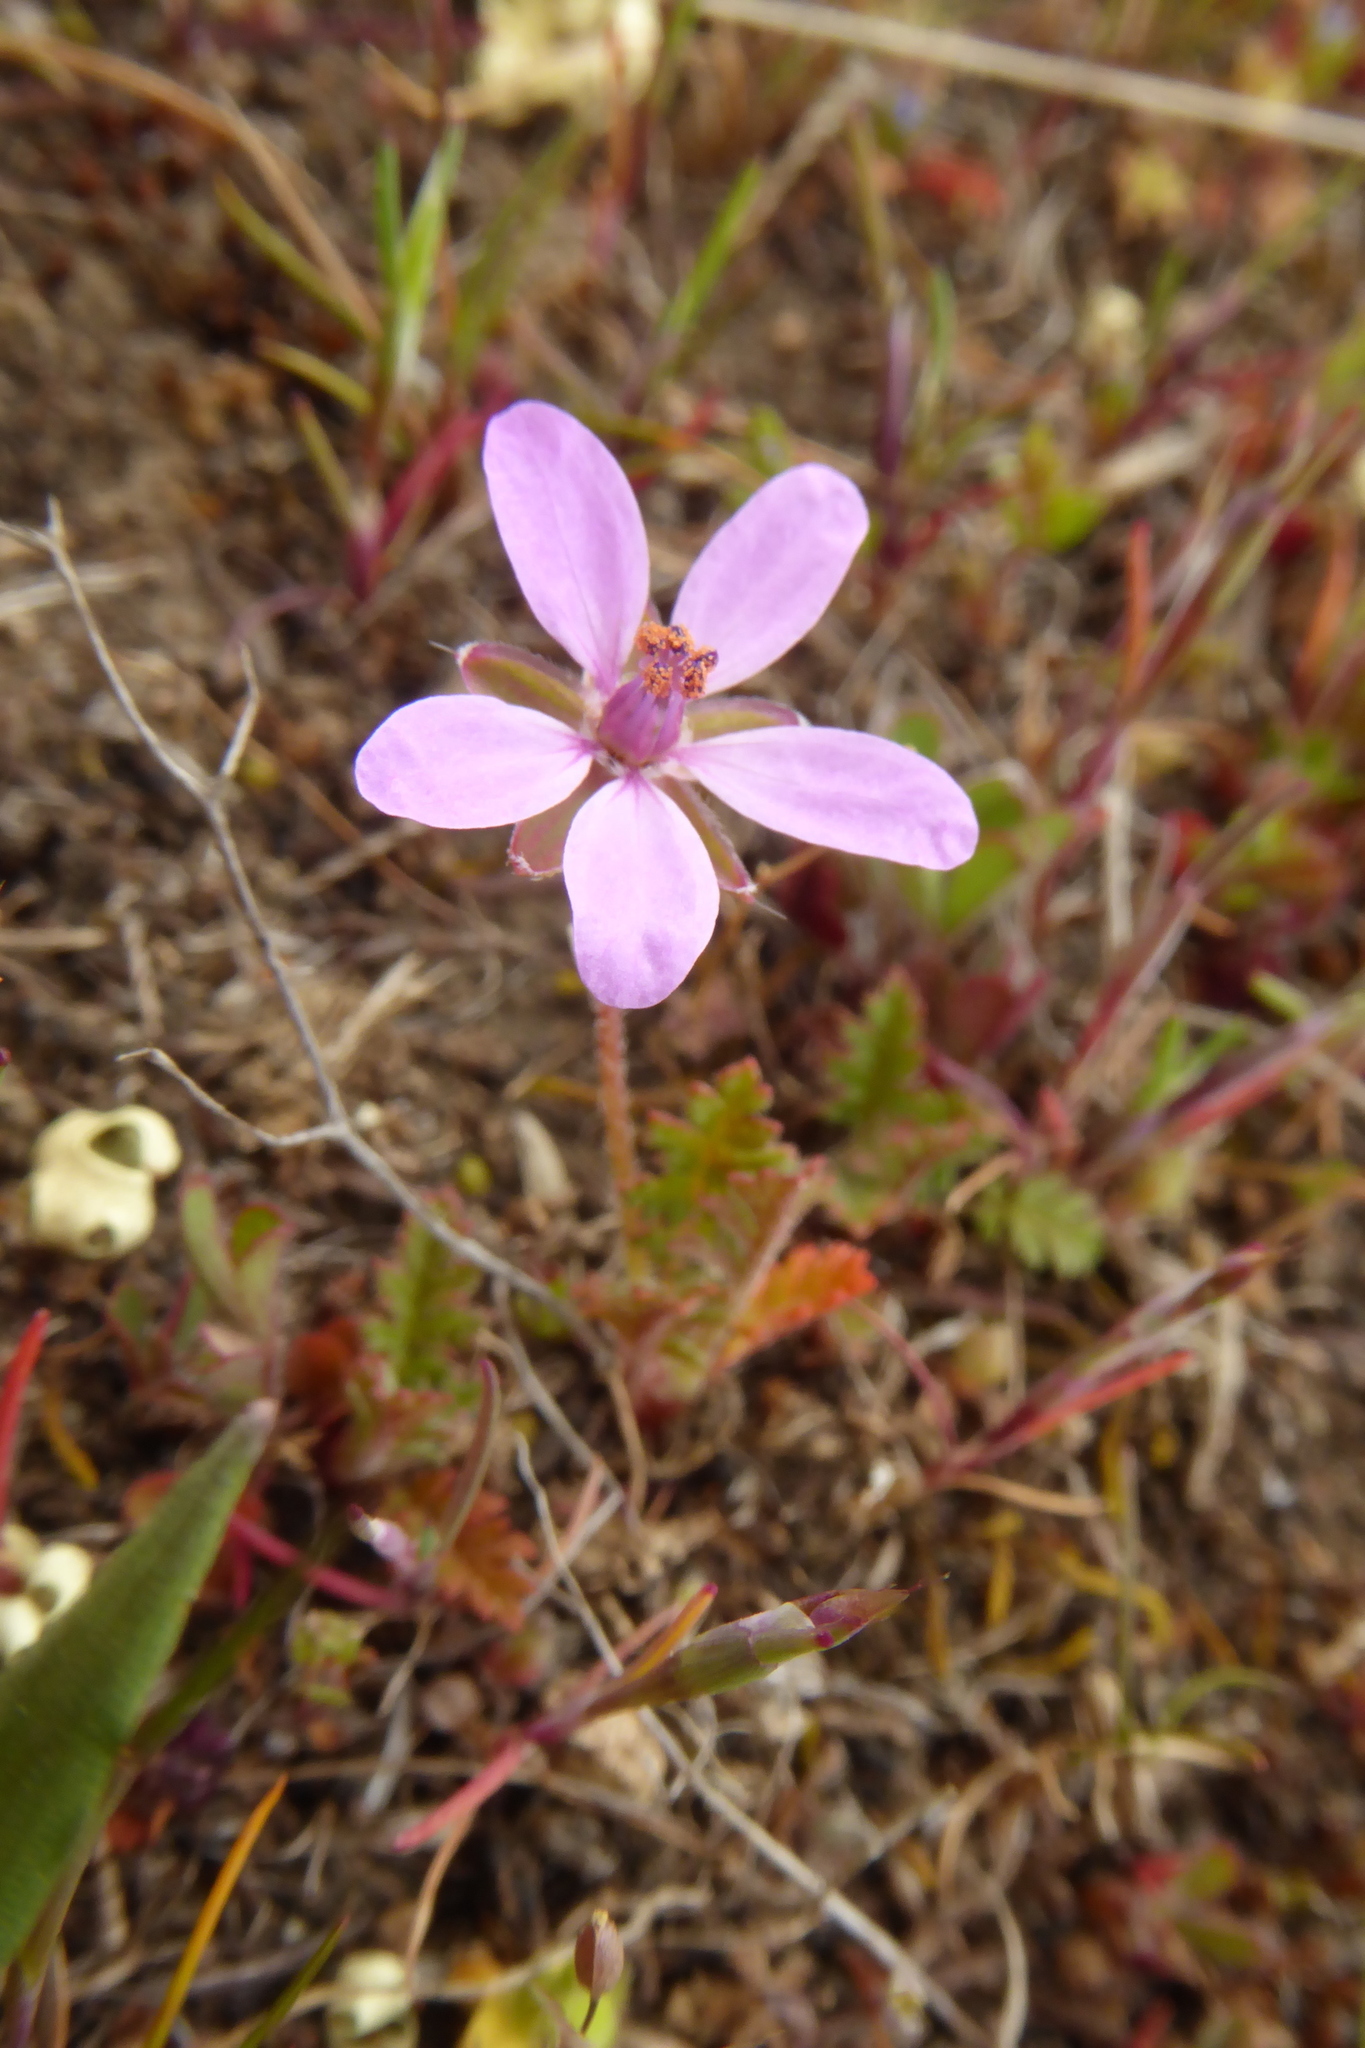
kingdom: Plantae
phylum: Tracheophyta
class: Magnoliopsida
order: Geraniales
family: Geraniaceae
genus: Erodium
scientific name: Erodium cicutarium
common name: Common stork's-bill
